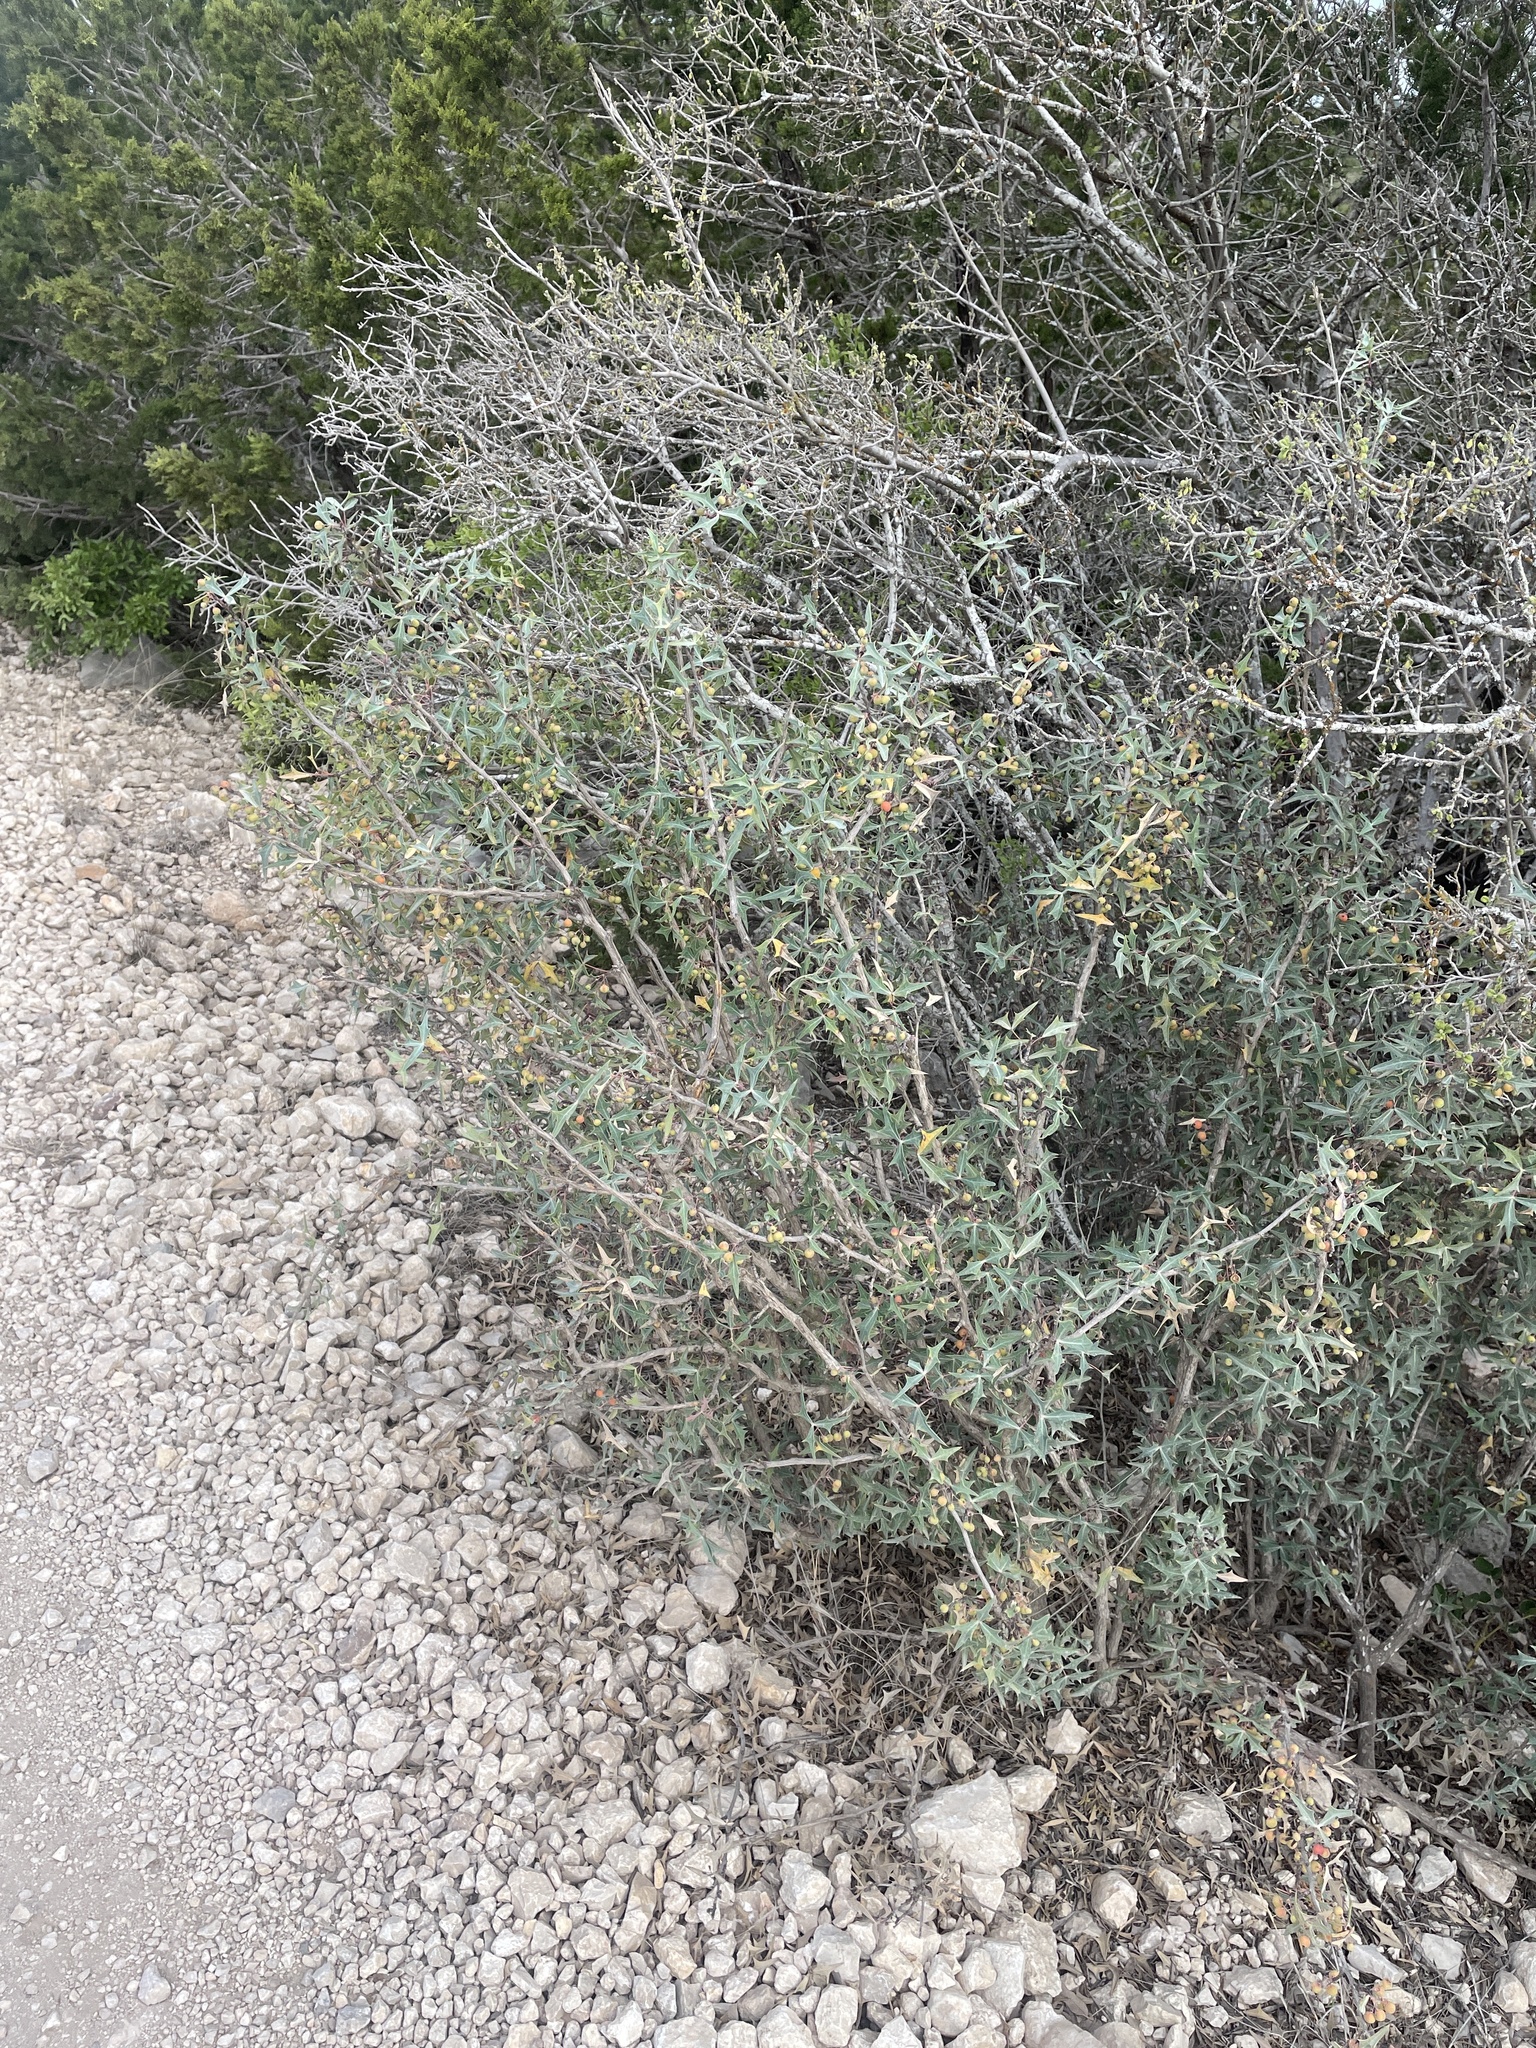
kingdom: Plantae
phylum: Tracheophyta
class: Magnoliopsida
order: Ranunculales
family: Berberidaceae
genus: Alloberberis
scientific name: Alloberberis trifoliolata
